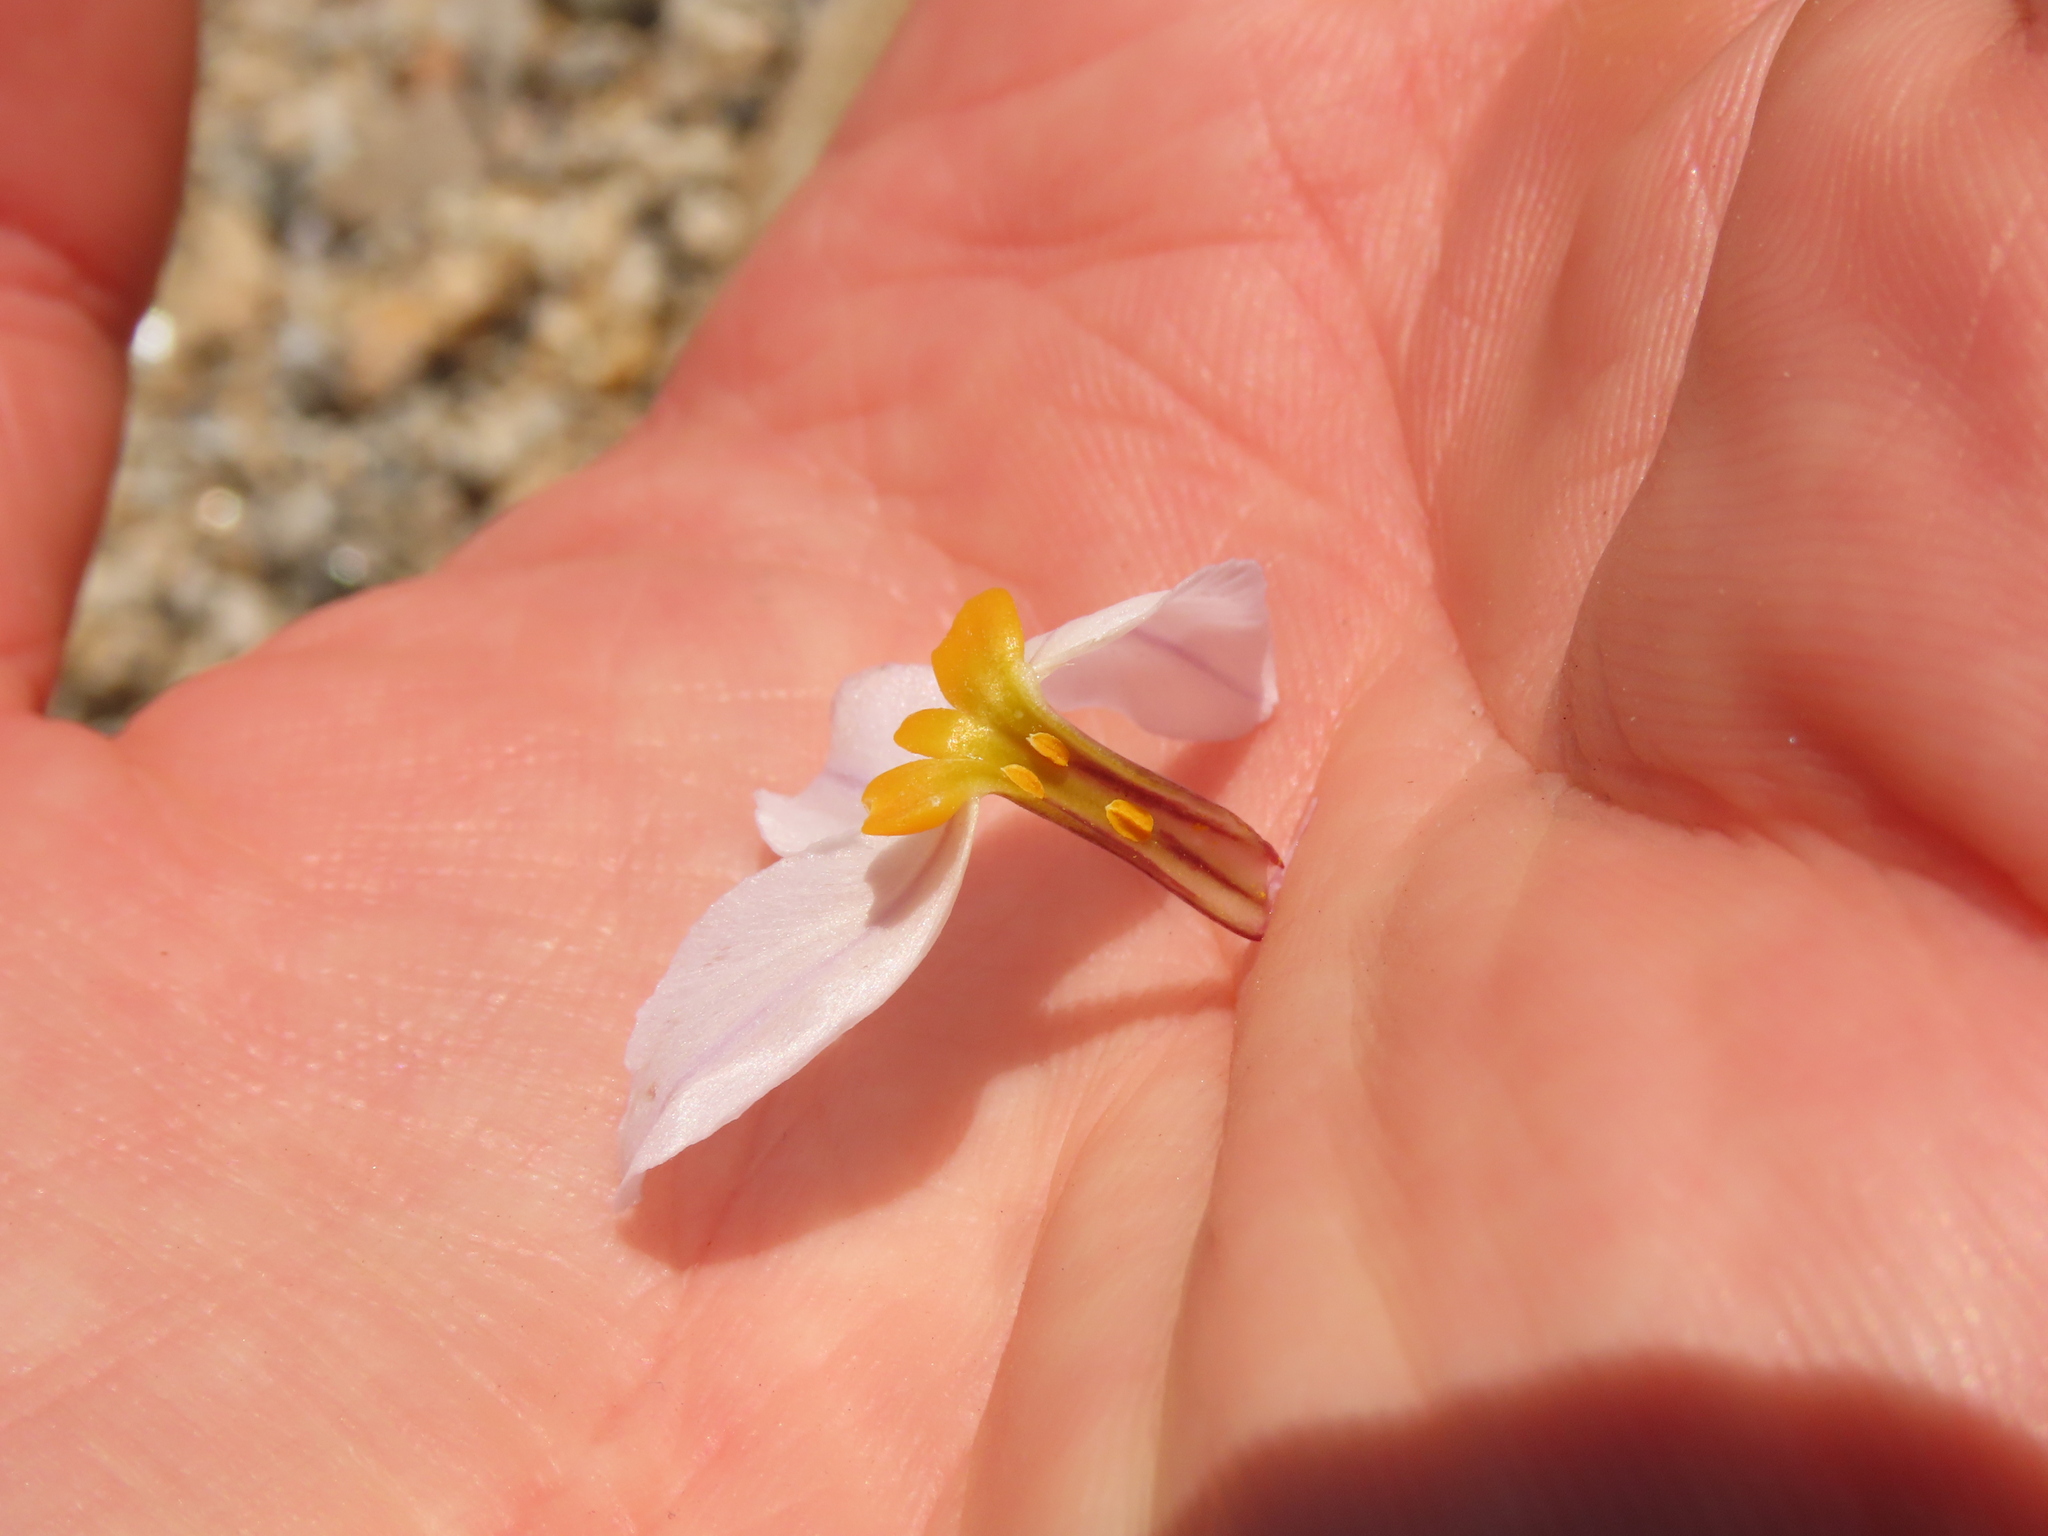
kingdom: Plantae
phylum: Tracheophyta
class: Liliopsida
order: Asparagales
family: Amaryllidaceae
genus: Leucocoryne
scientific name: Leucocoryne coronata
